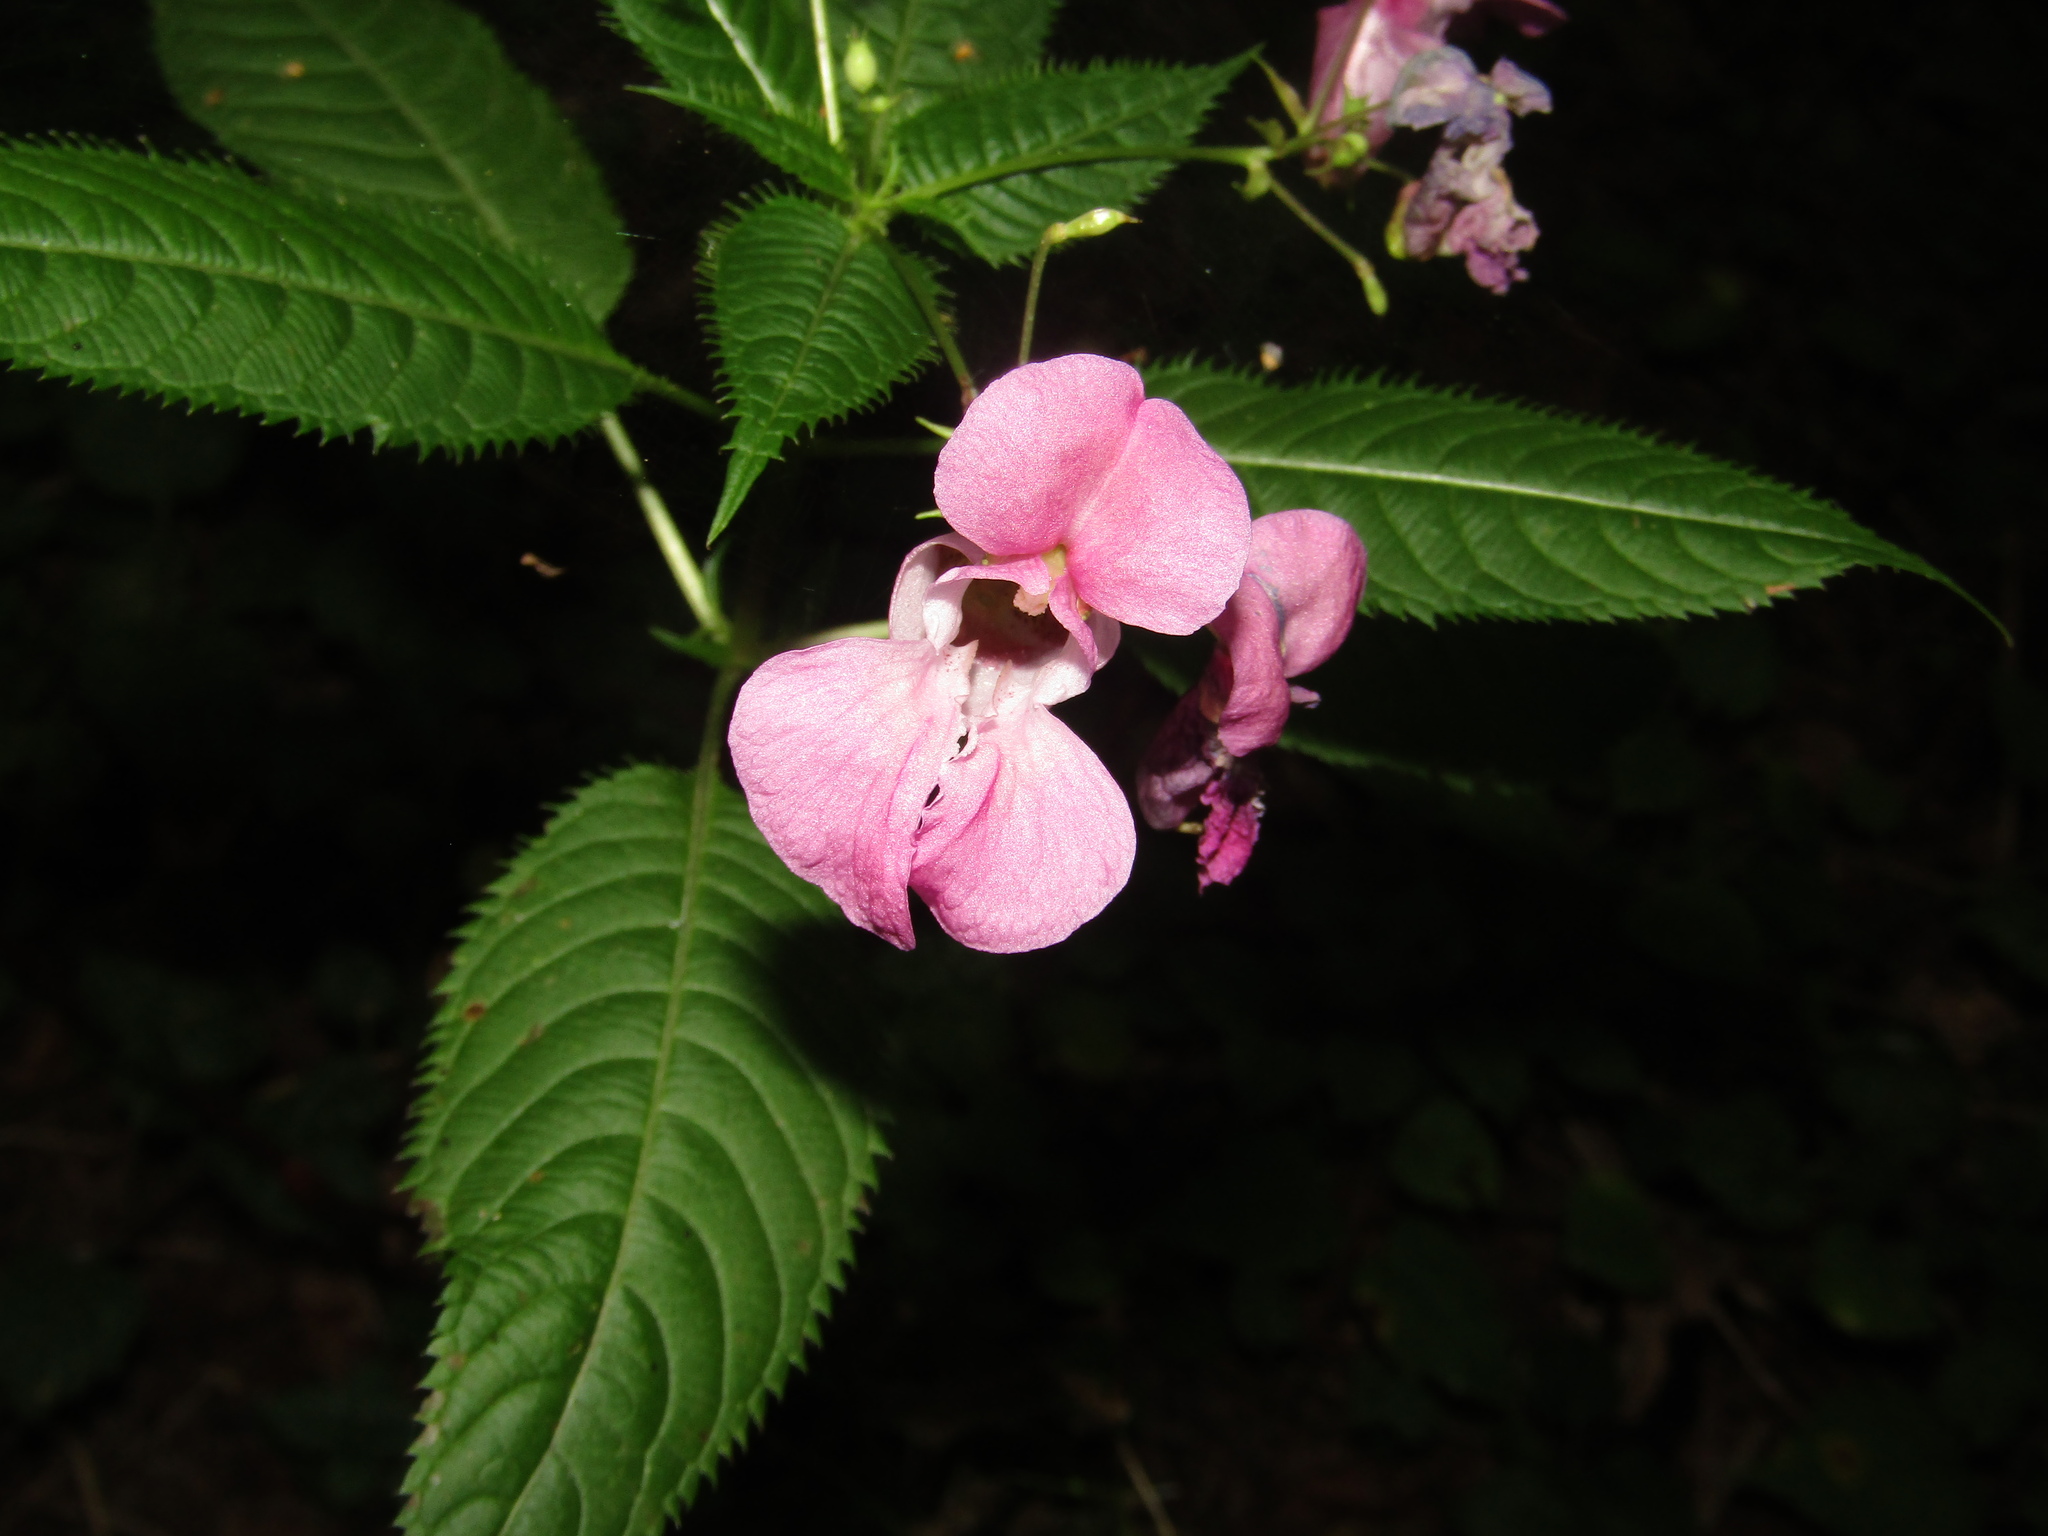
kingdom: Plantae
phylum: Tracheophyta
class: Magnoliopsida
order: Ericales
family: Balsaminaceae
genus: Impatiens
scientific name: Impatiens glandulifera
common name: Himalayan balsam
